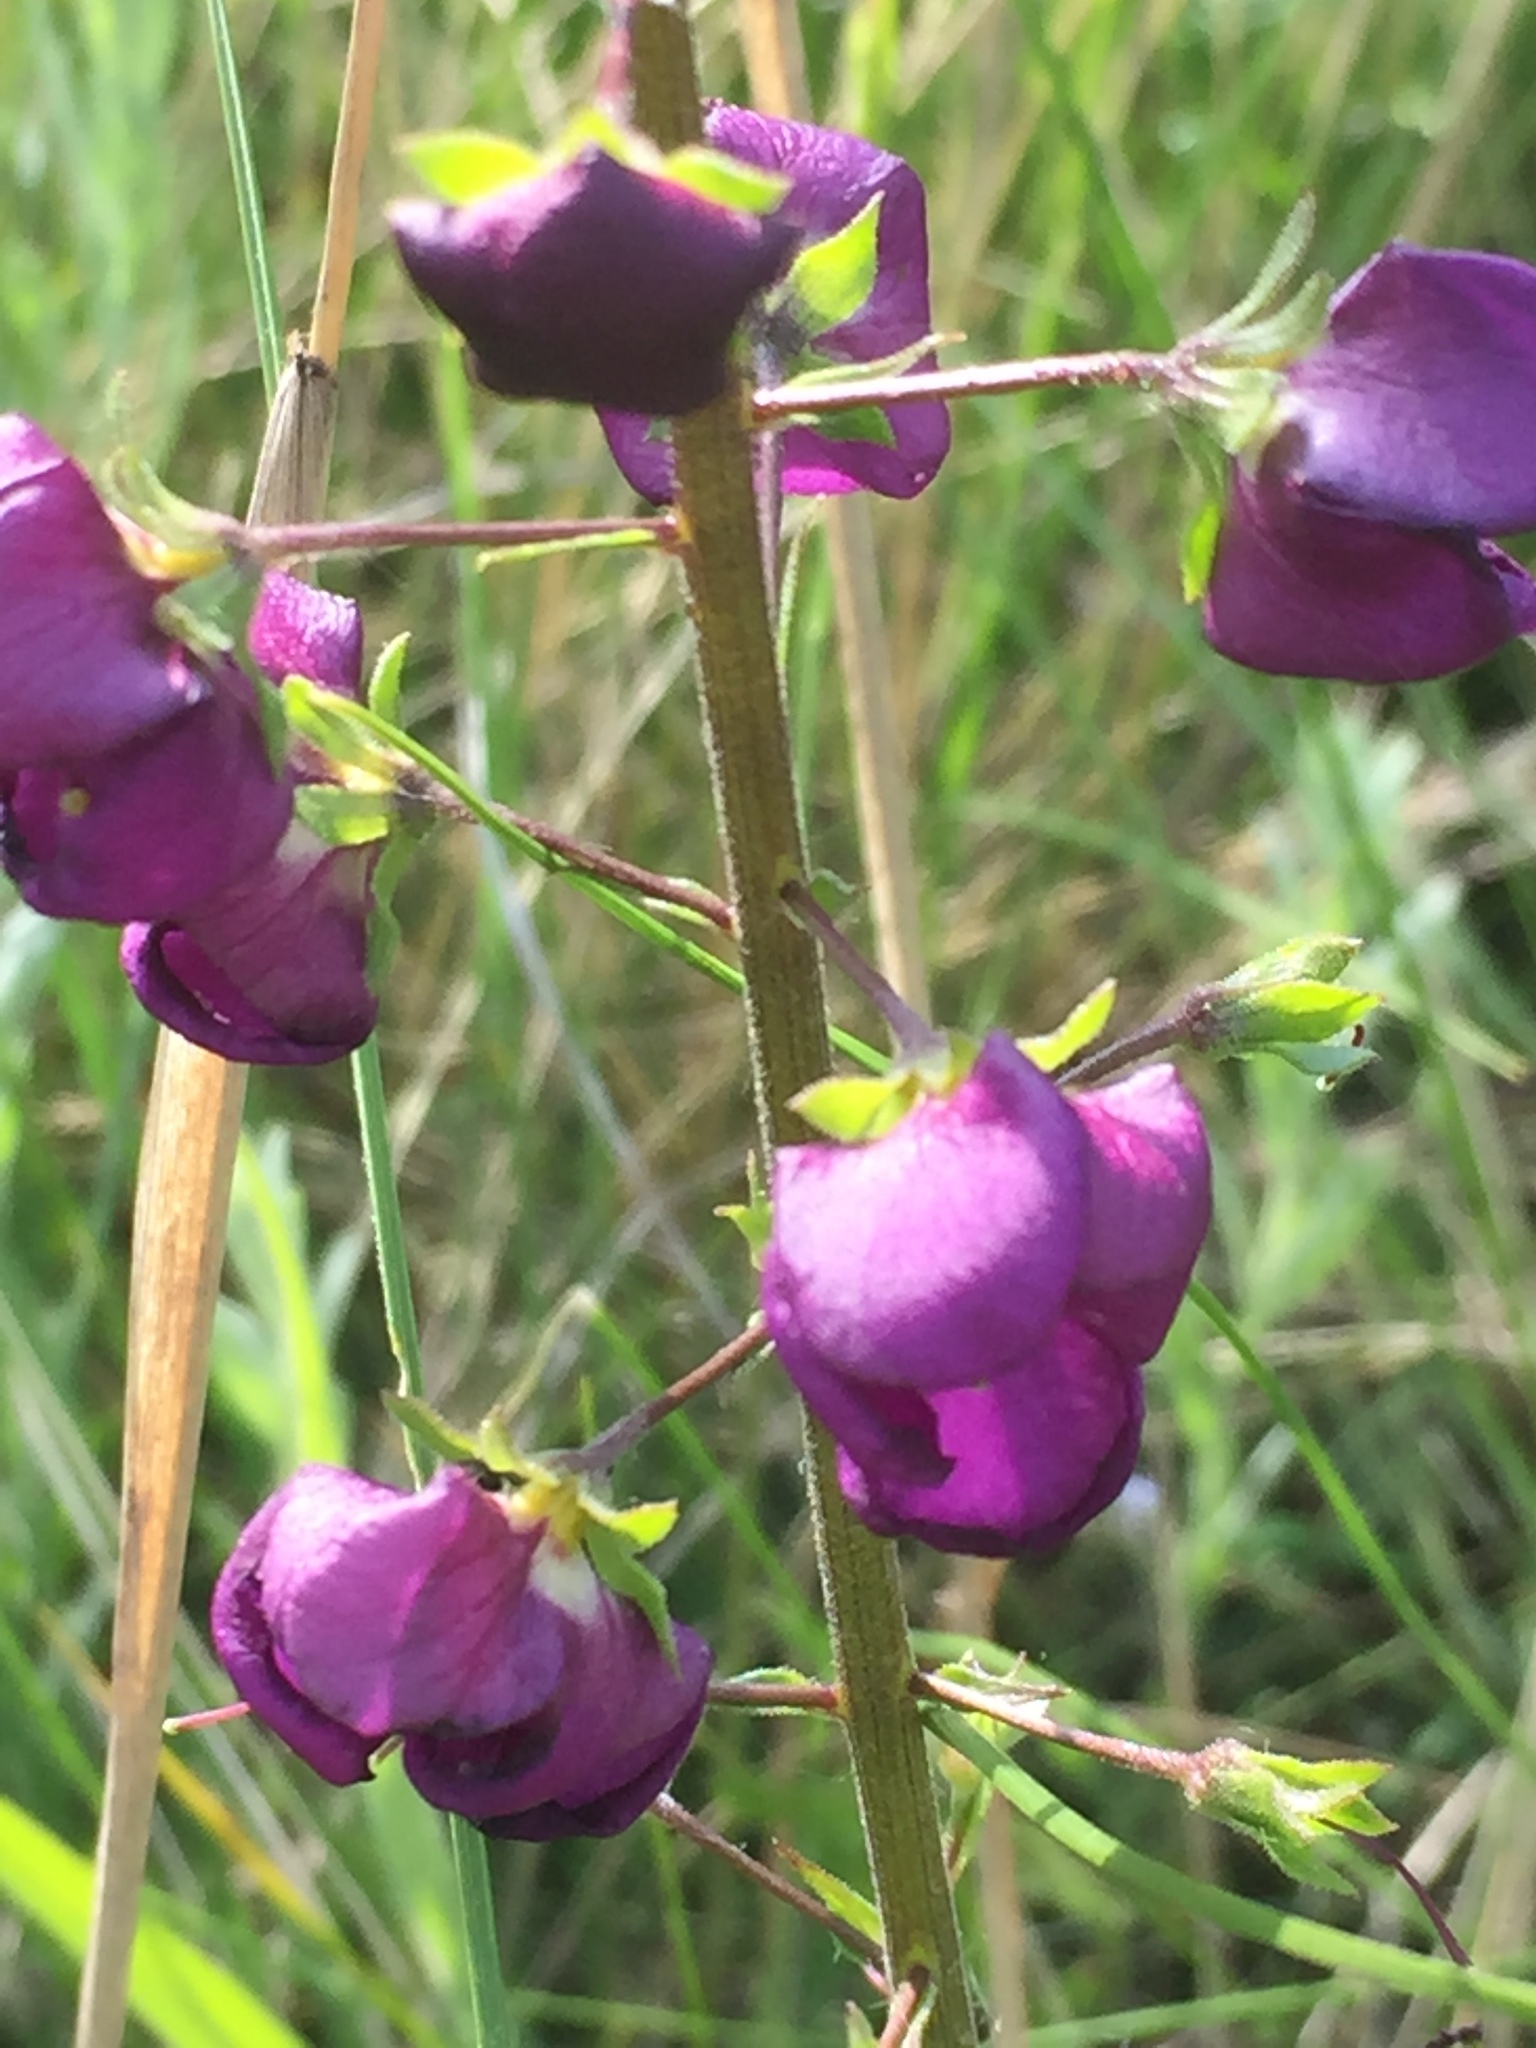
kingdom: Plantae
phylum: Tracheophyta
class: Magnoliopsida
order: Lamiales
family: Scrophulariaceae
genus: Verbascum
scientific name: Verbascum phoeniceum
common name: Purple mullein
